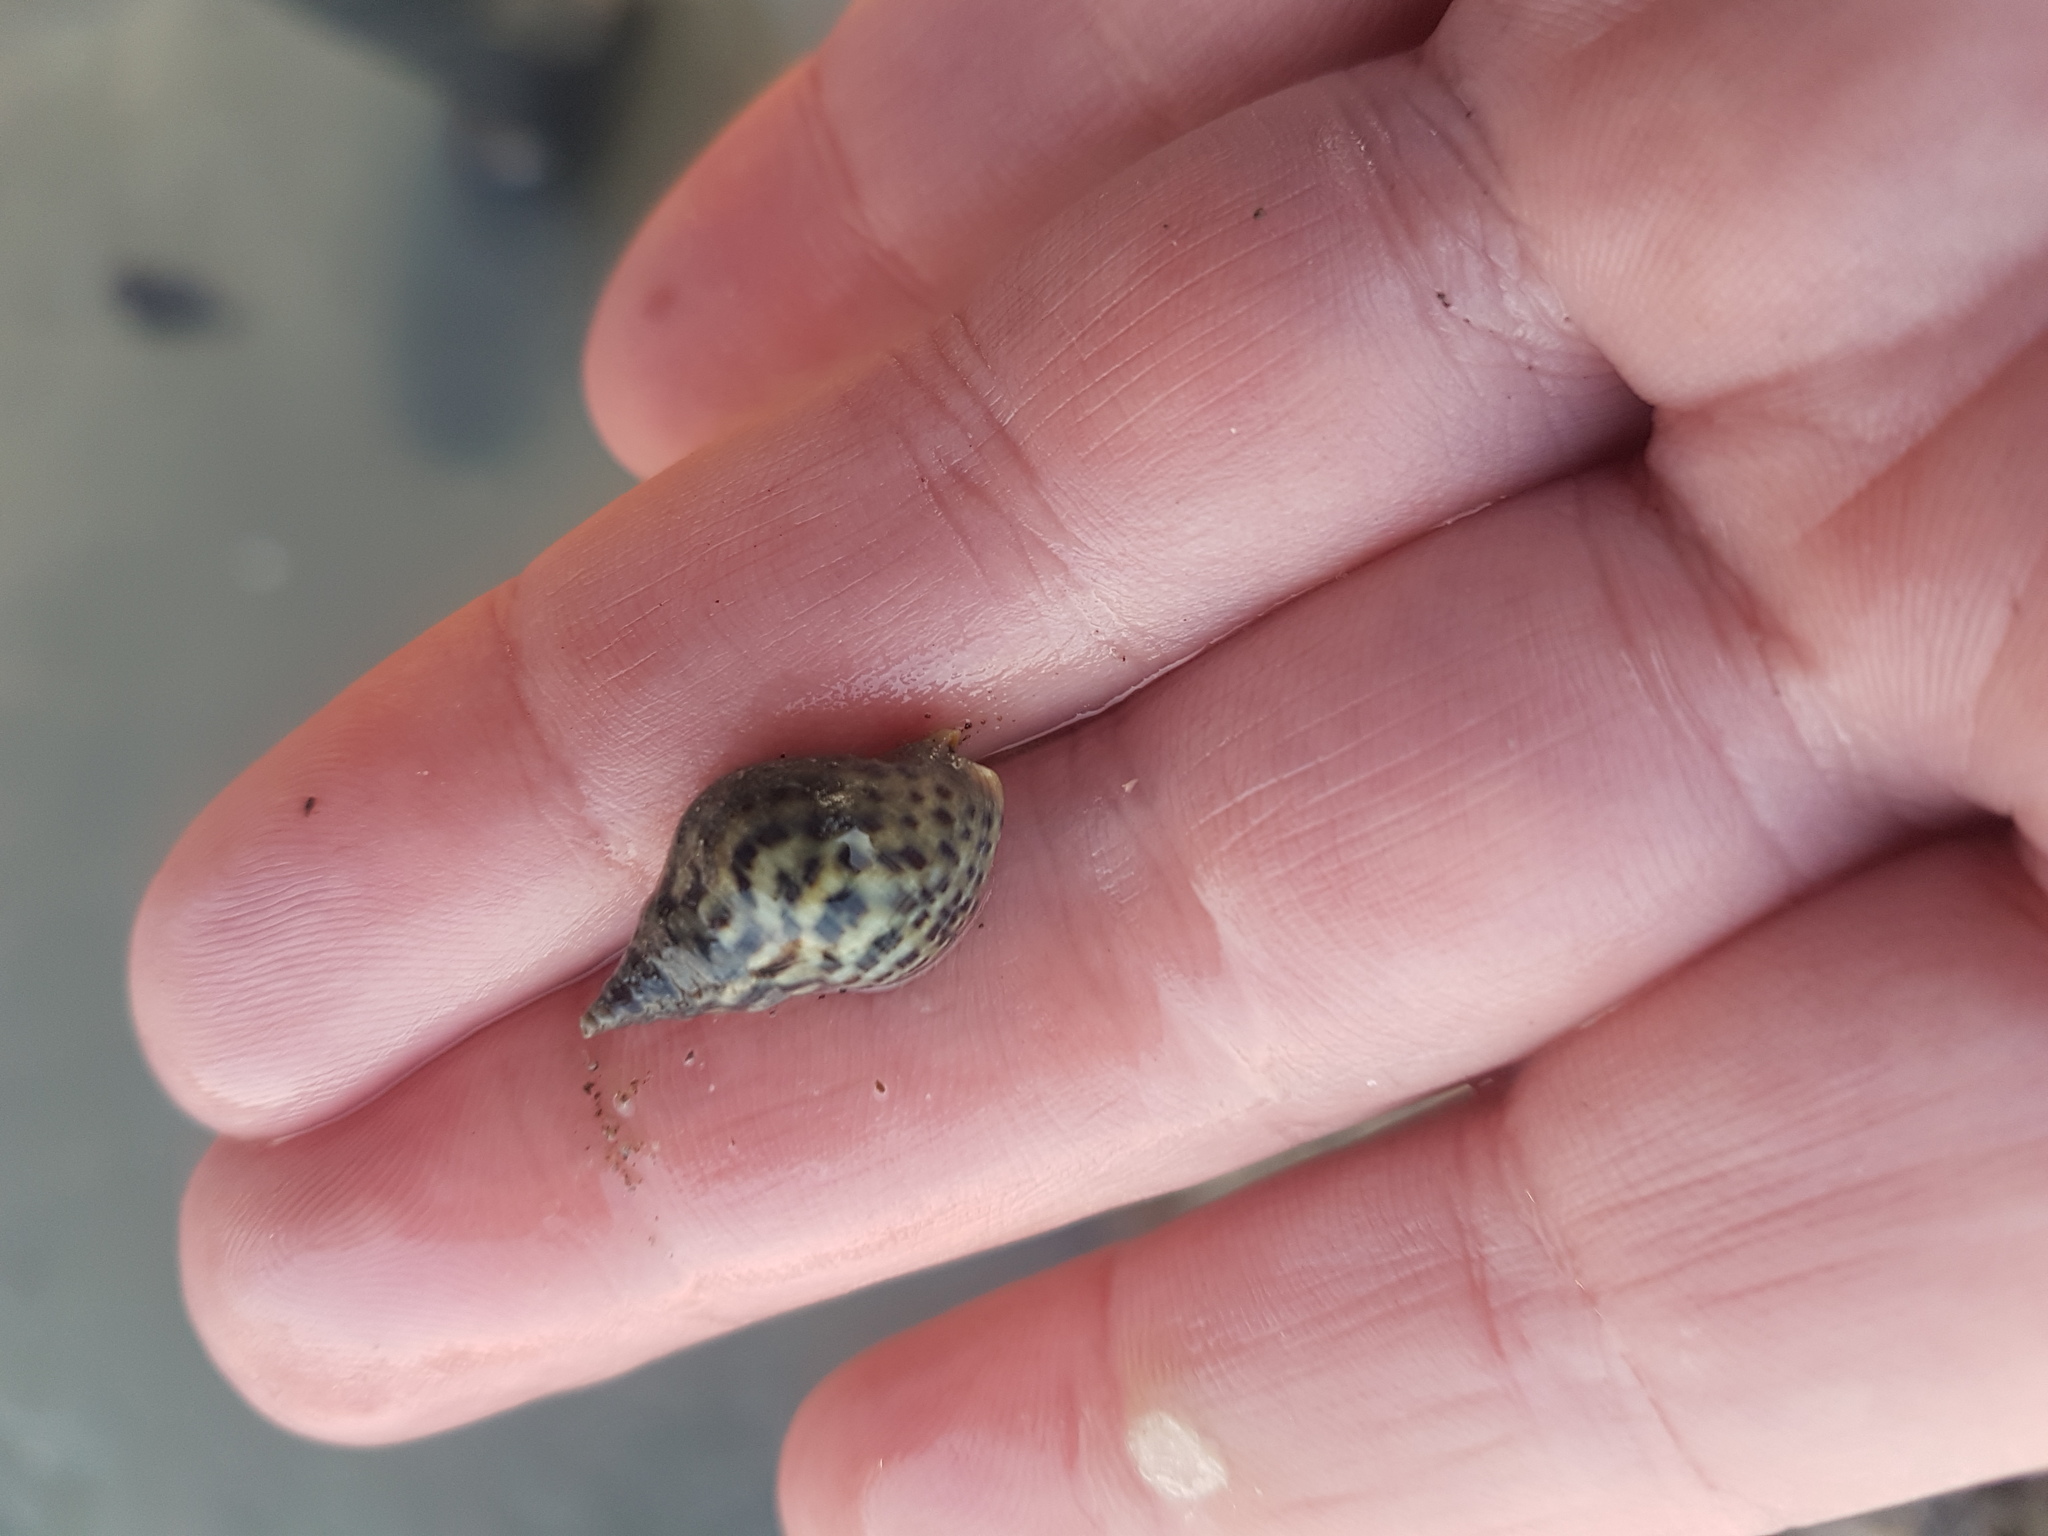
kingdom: Animalia
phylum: Mollusca
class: Gastropoda
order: Neogastropoda
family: Cominellidae
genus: Cominella
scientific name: Cominella maculosa
